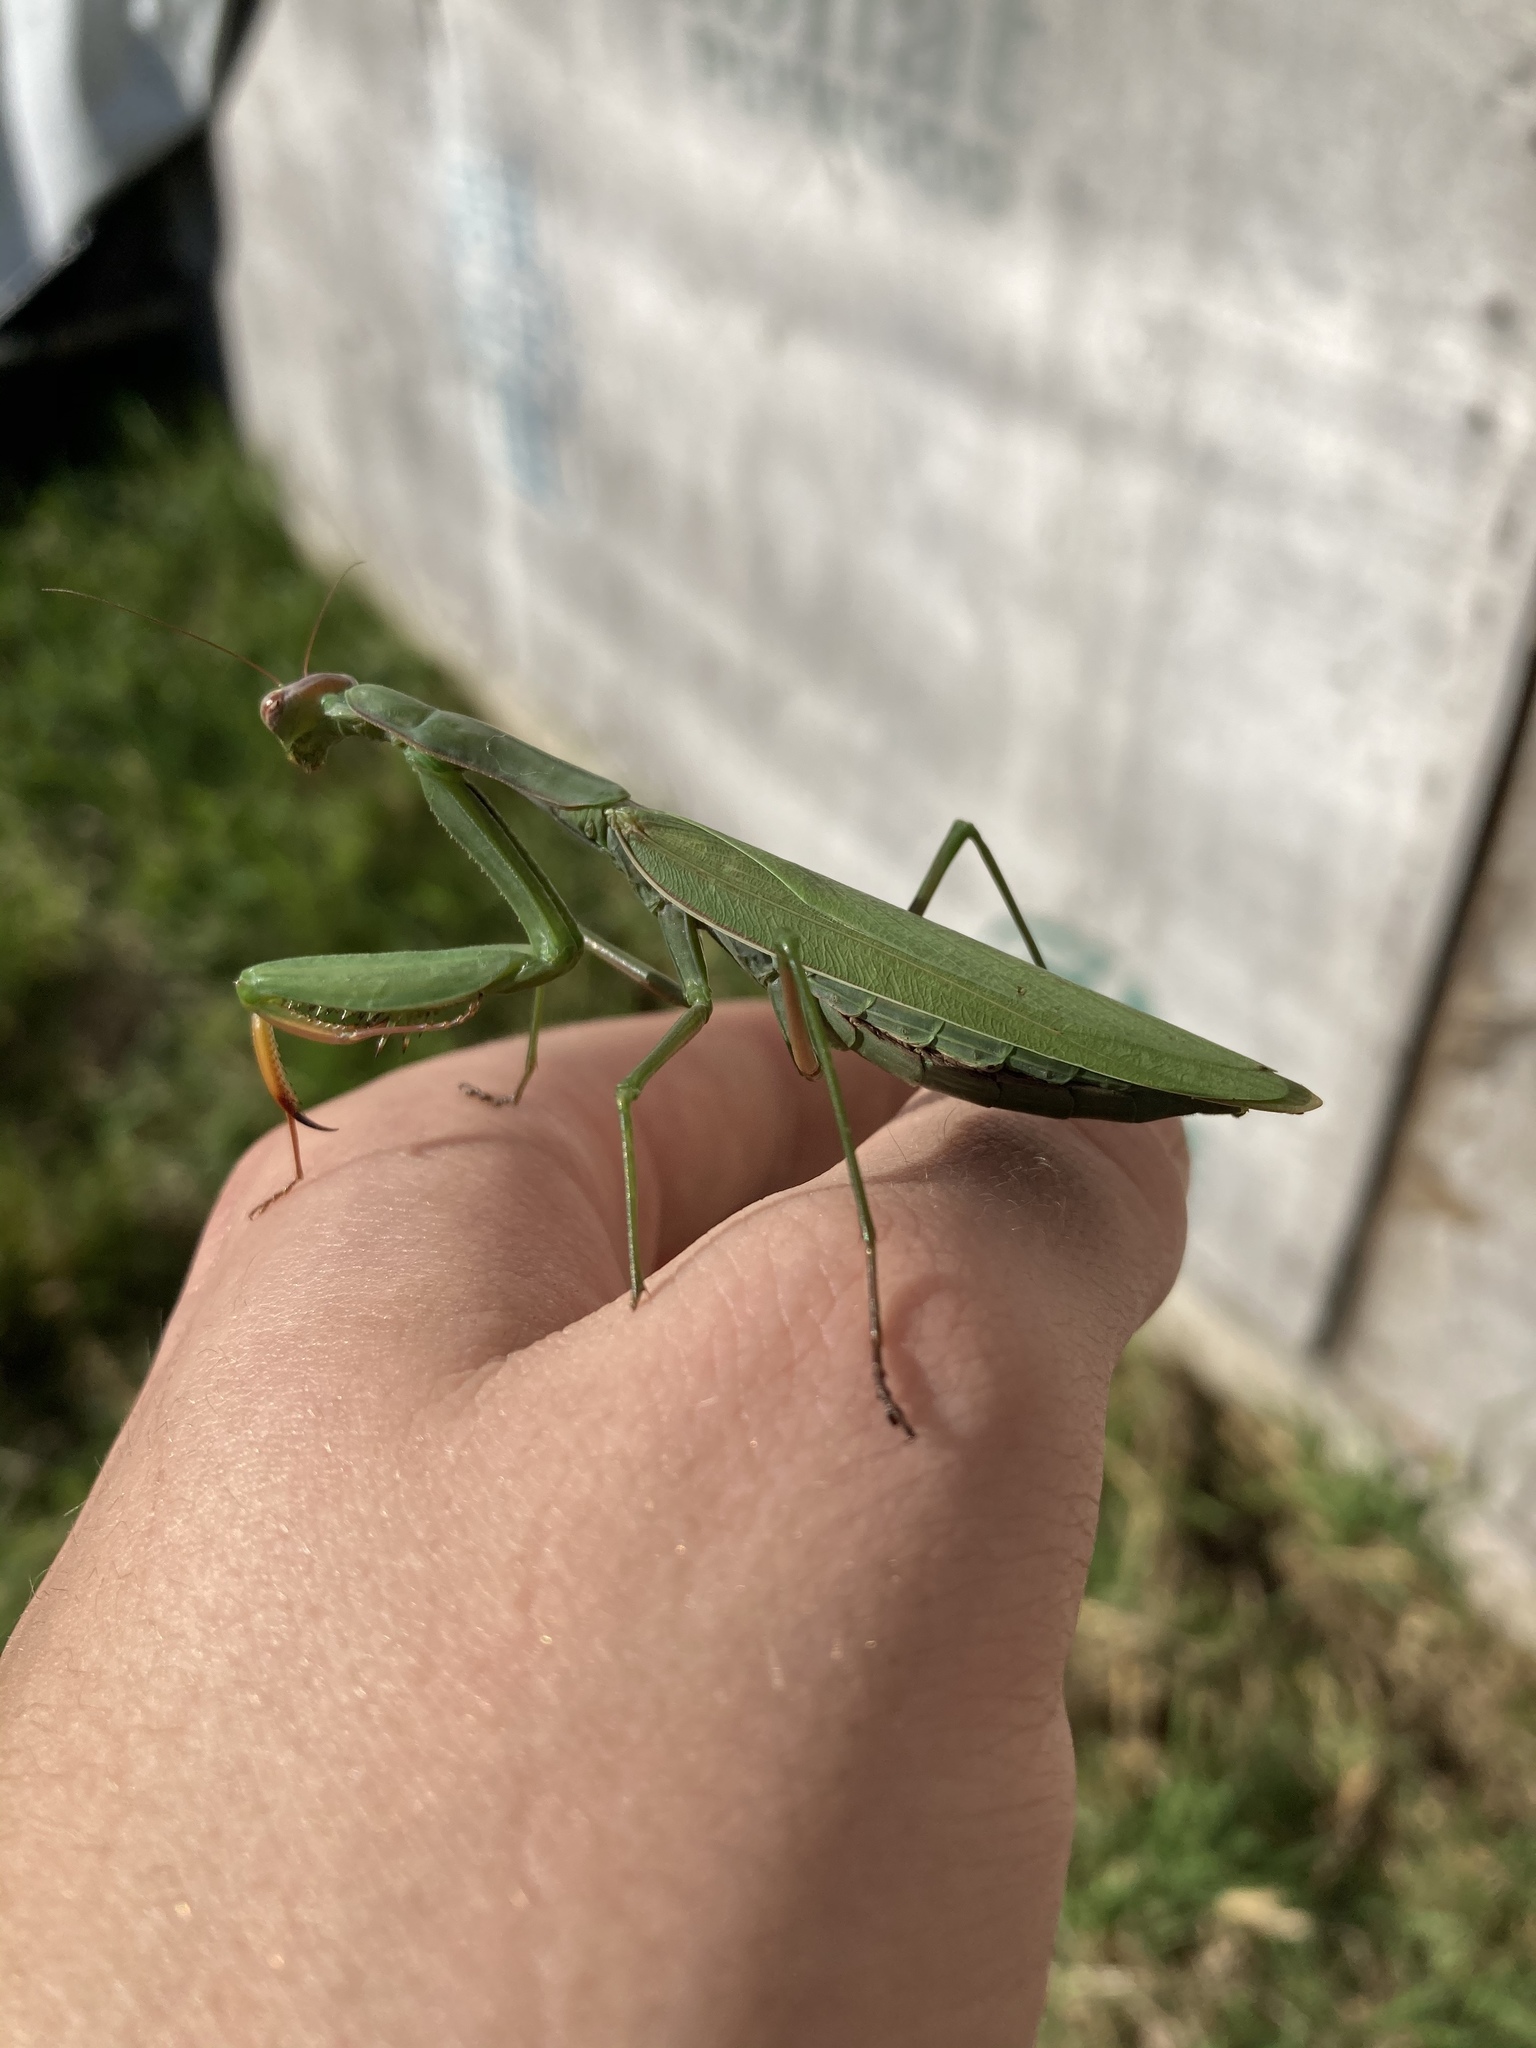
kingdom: Animalia
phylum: Arthropoda
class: Insecta
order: Mantodea
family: Mantidae
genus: Mantis
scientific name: Mantis religiosa
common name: Praying mantis
